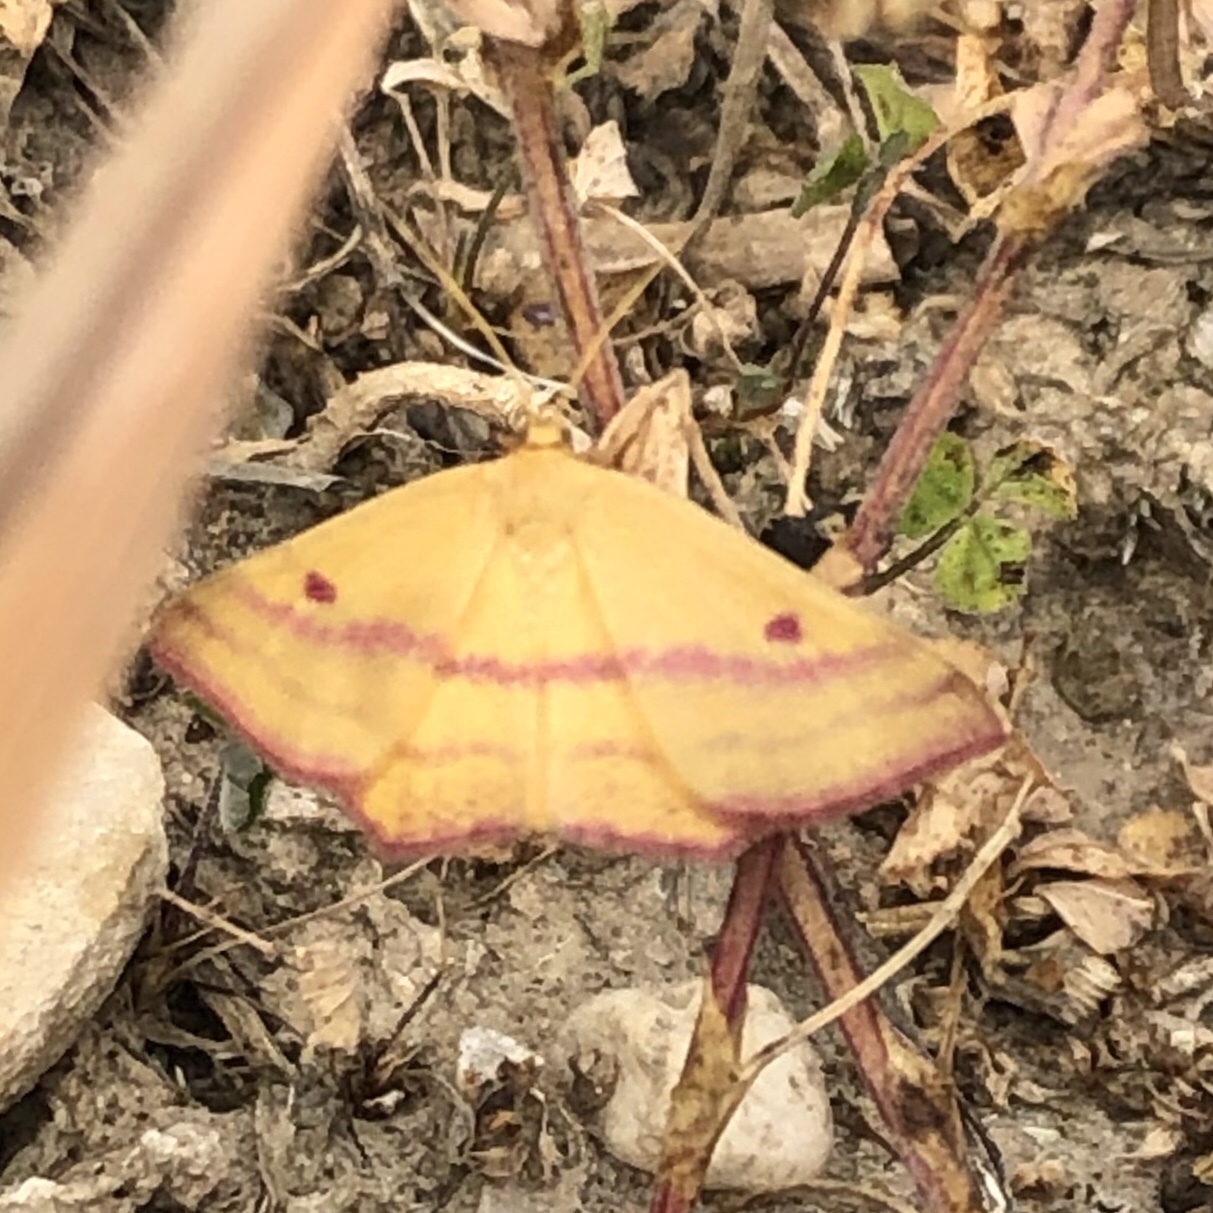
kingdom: Animalia
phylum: Arthropoda
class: Insecta
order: Lepidoptera
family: Geometridae
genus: Haematopis
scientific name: Haematopis grataria
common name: Chickweed geometer
